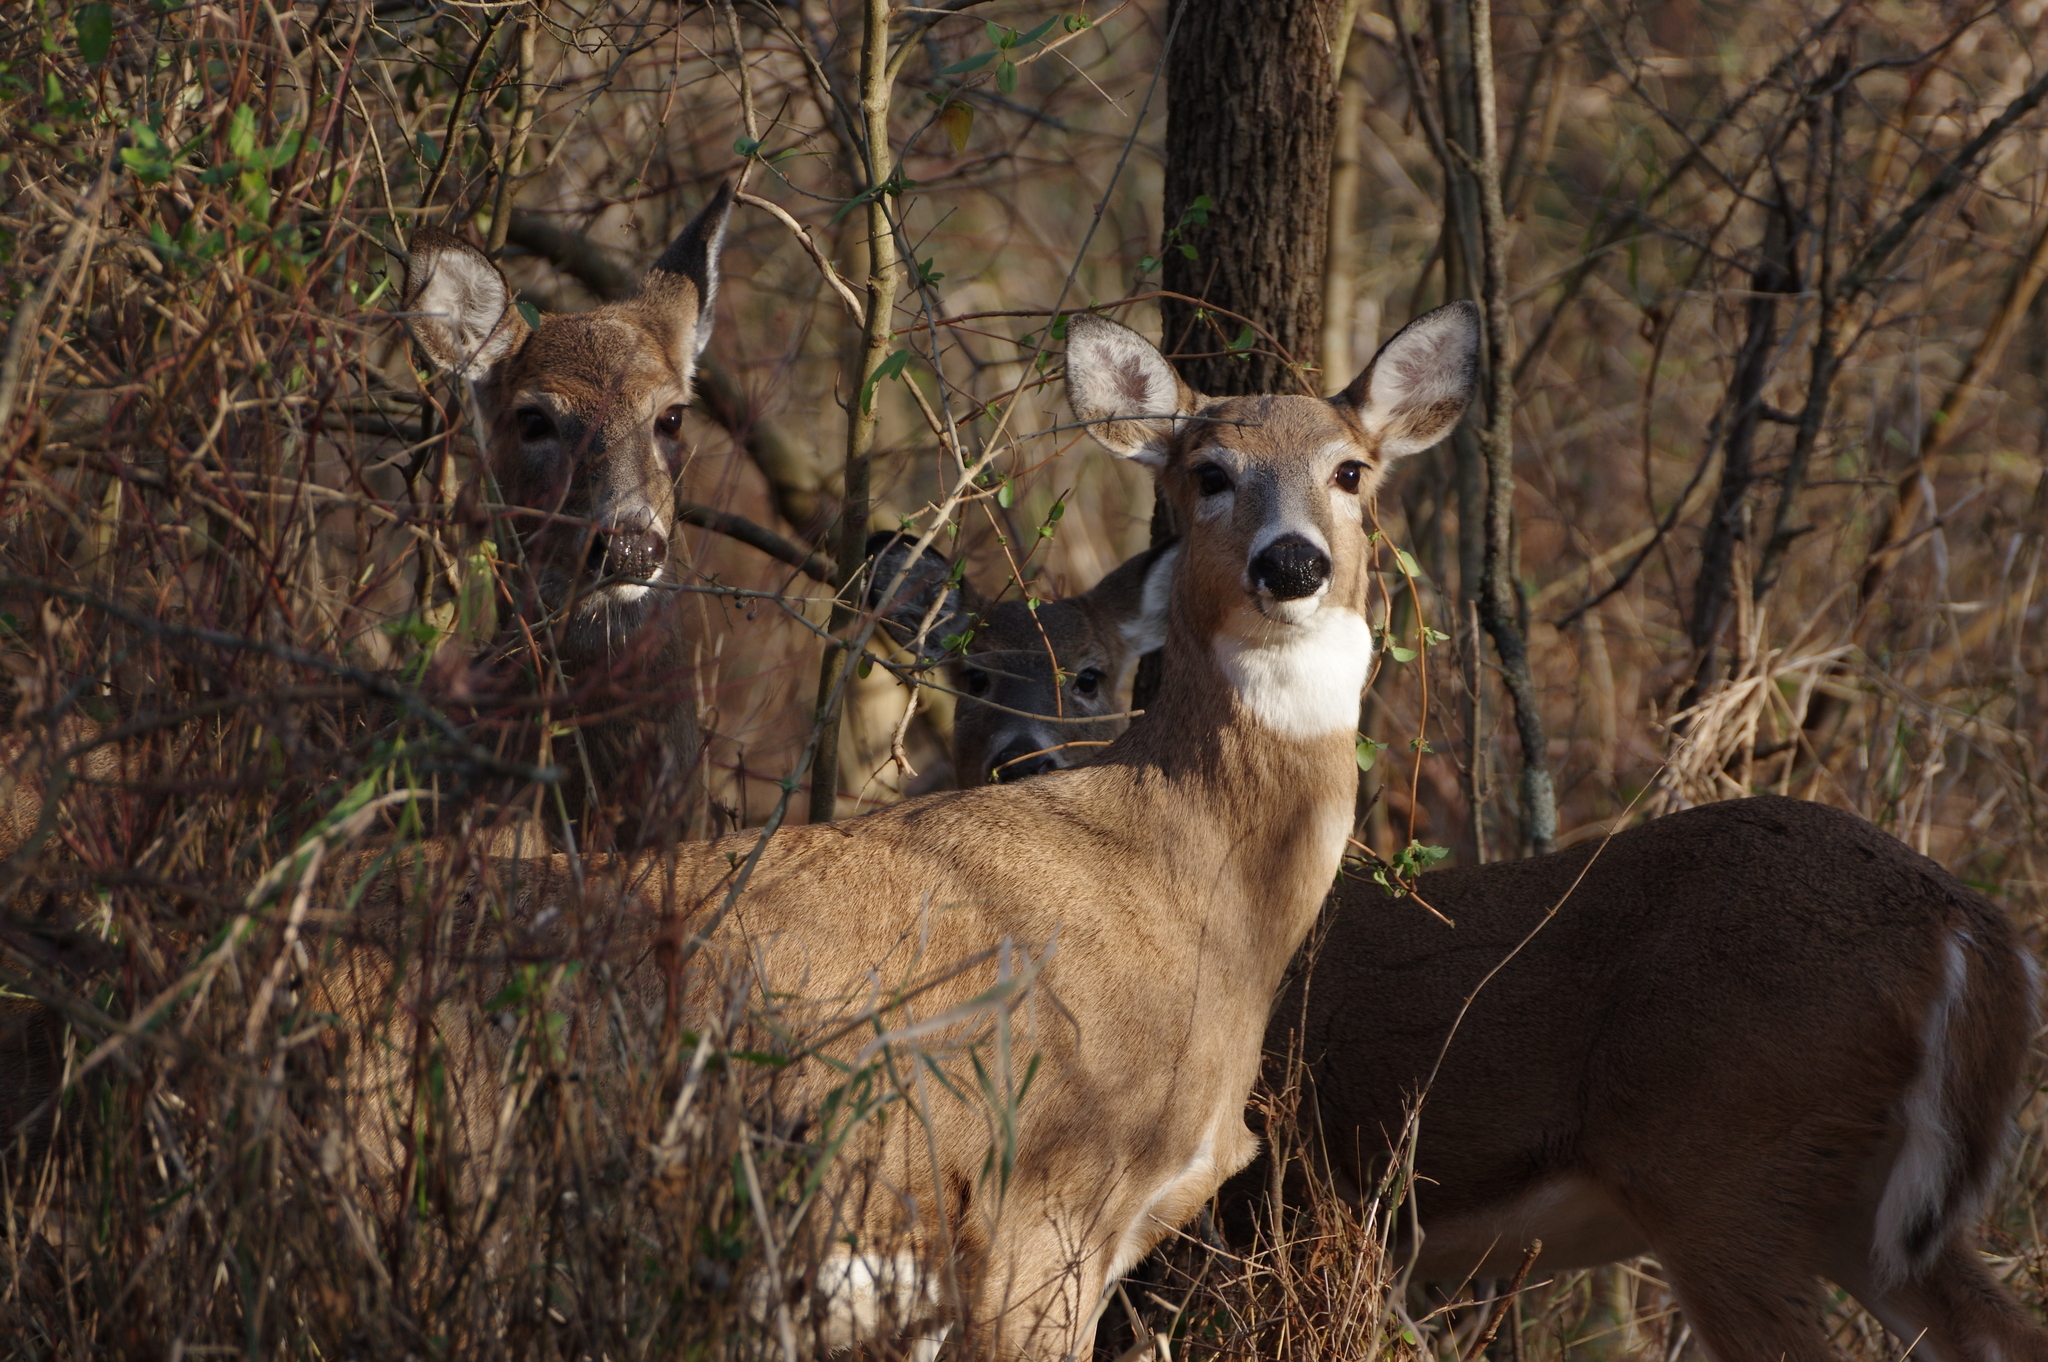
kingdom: Animalia
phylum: Chordata
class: Mammalia
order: Artiodactyla
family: Cervidae
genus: Odocoileus
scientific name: Odocoileus virginianus
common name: White-tailed deer
